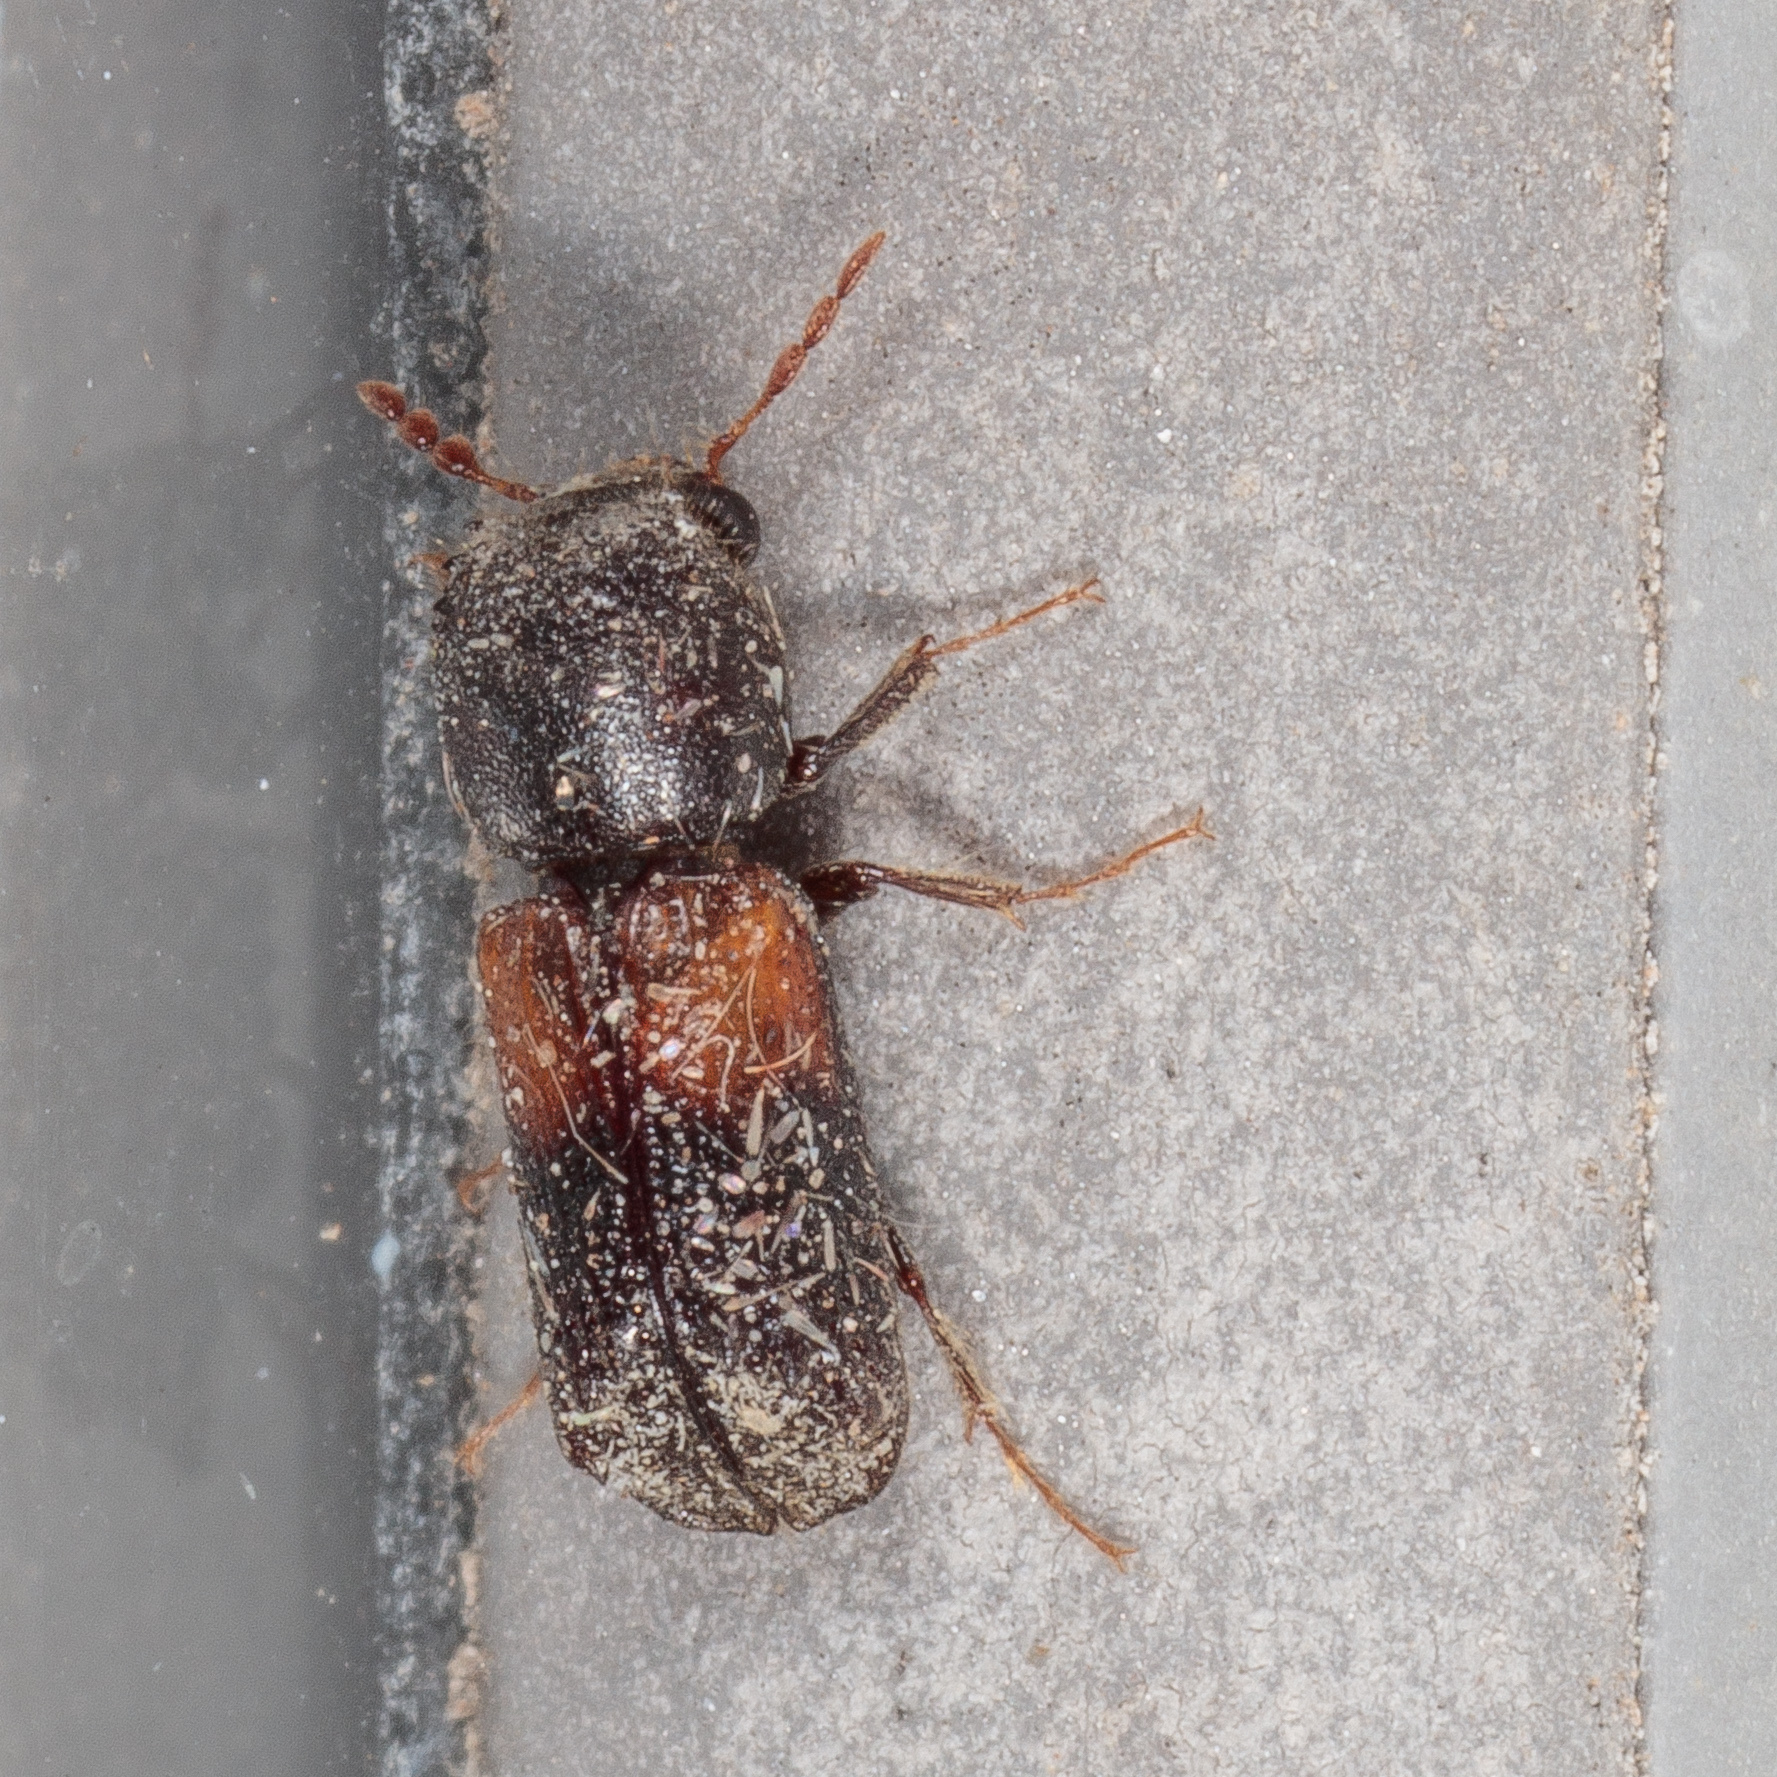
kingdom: Animalia
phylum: Arthropoda
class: Insecta
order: Coleoptera
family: Bostrichidae
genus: Xylobiops
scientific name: Xylobiops basilaris
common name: Red-shouldered bostrichid
